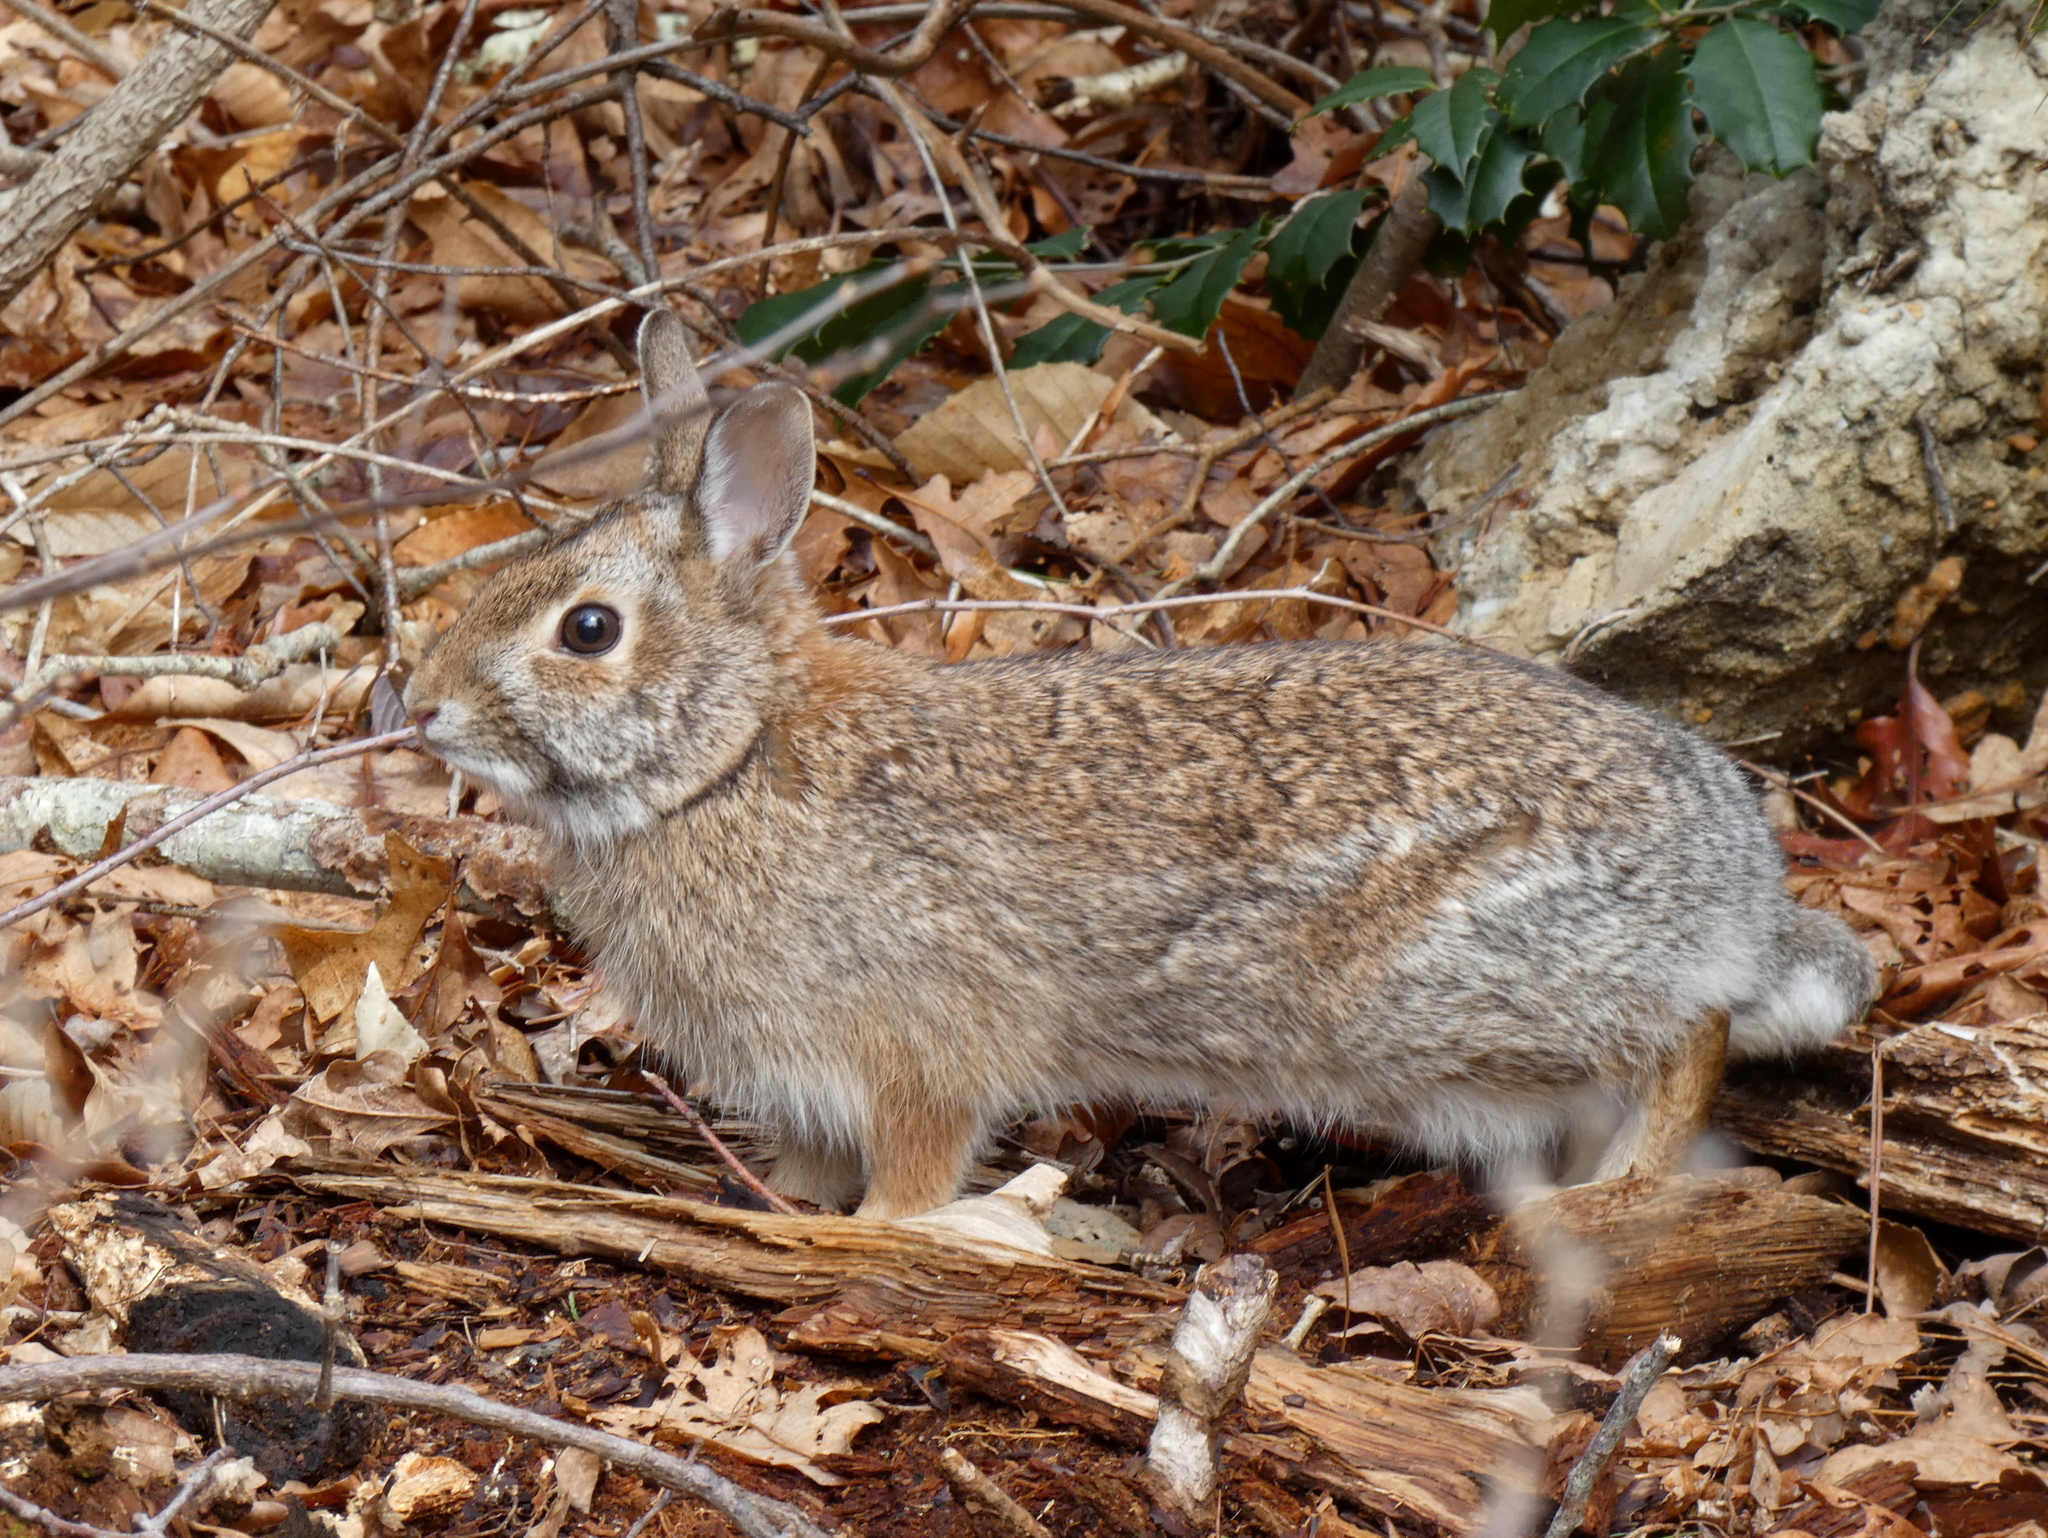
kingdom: Animalia
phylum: Chordata
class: Mammalia
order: Lagomorpha
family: Leporidae
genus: Sylvilagus
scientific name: Sylvilagus floridanus
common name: Eastern cottontail
